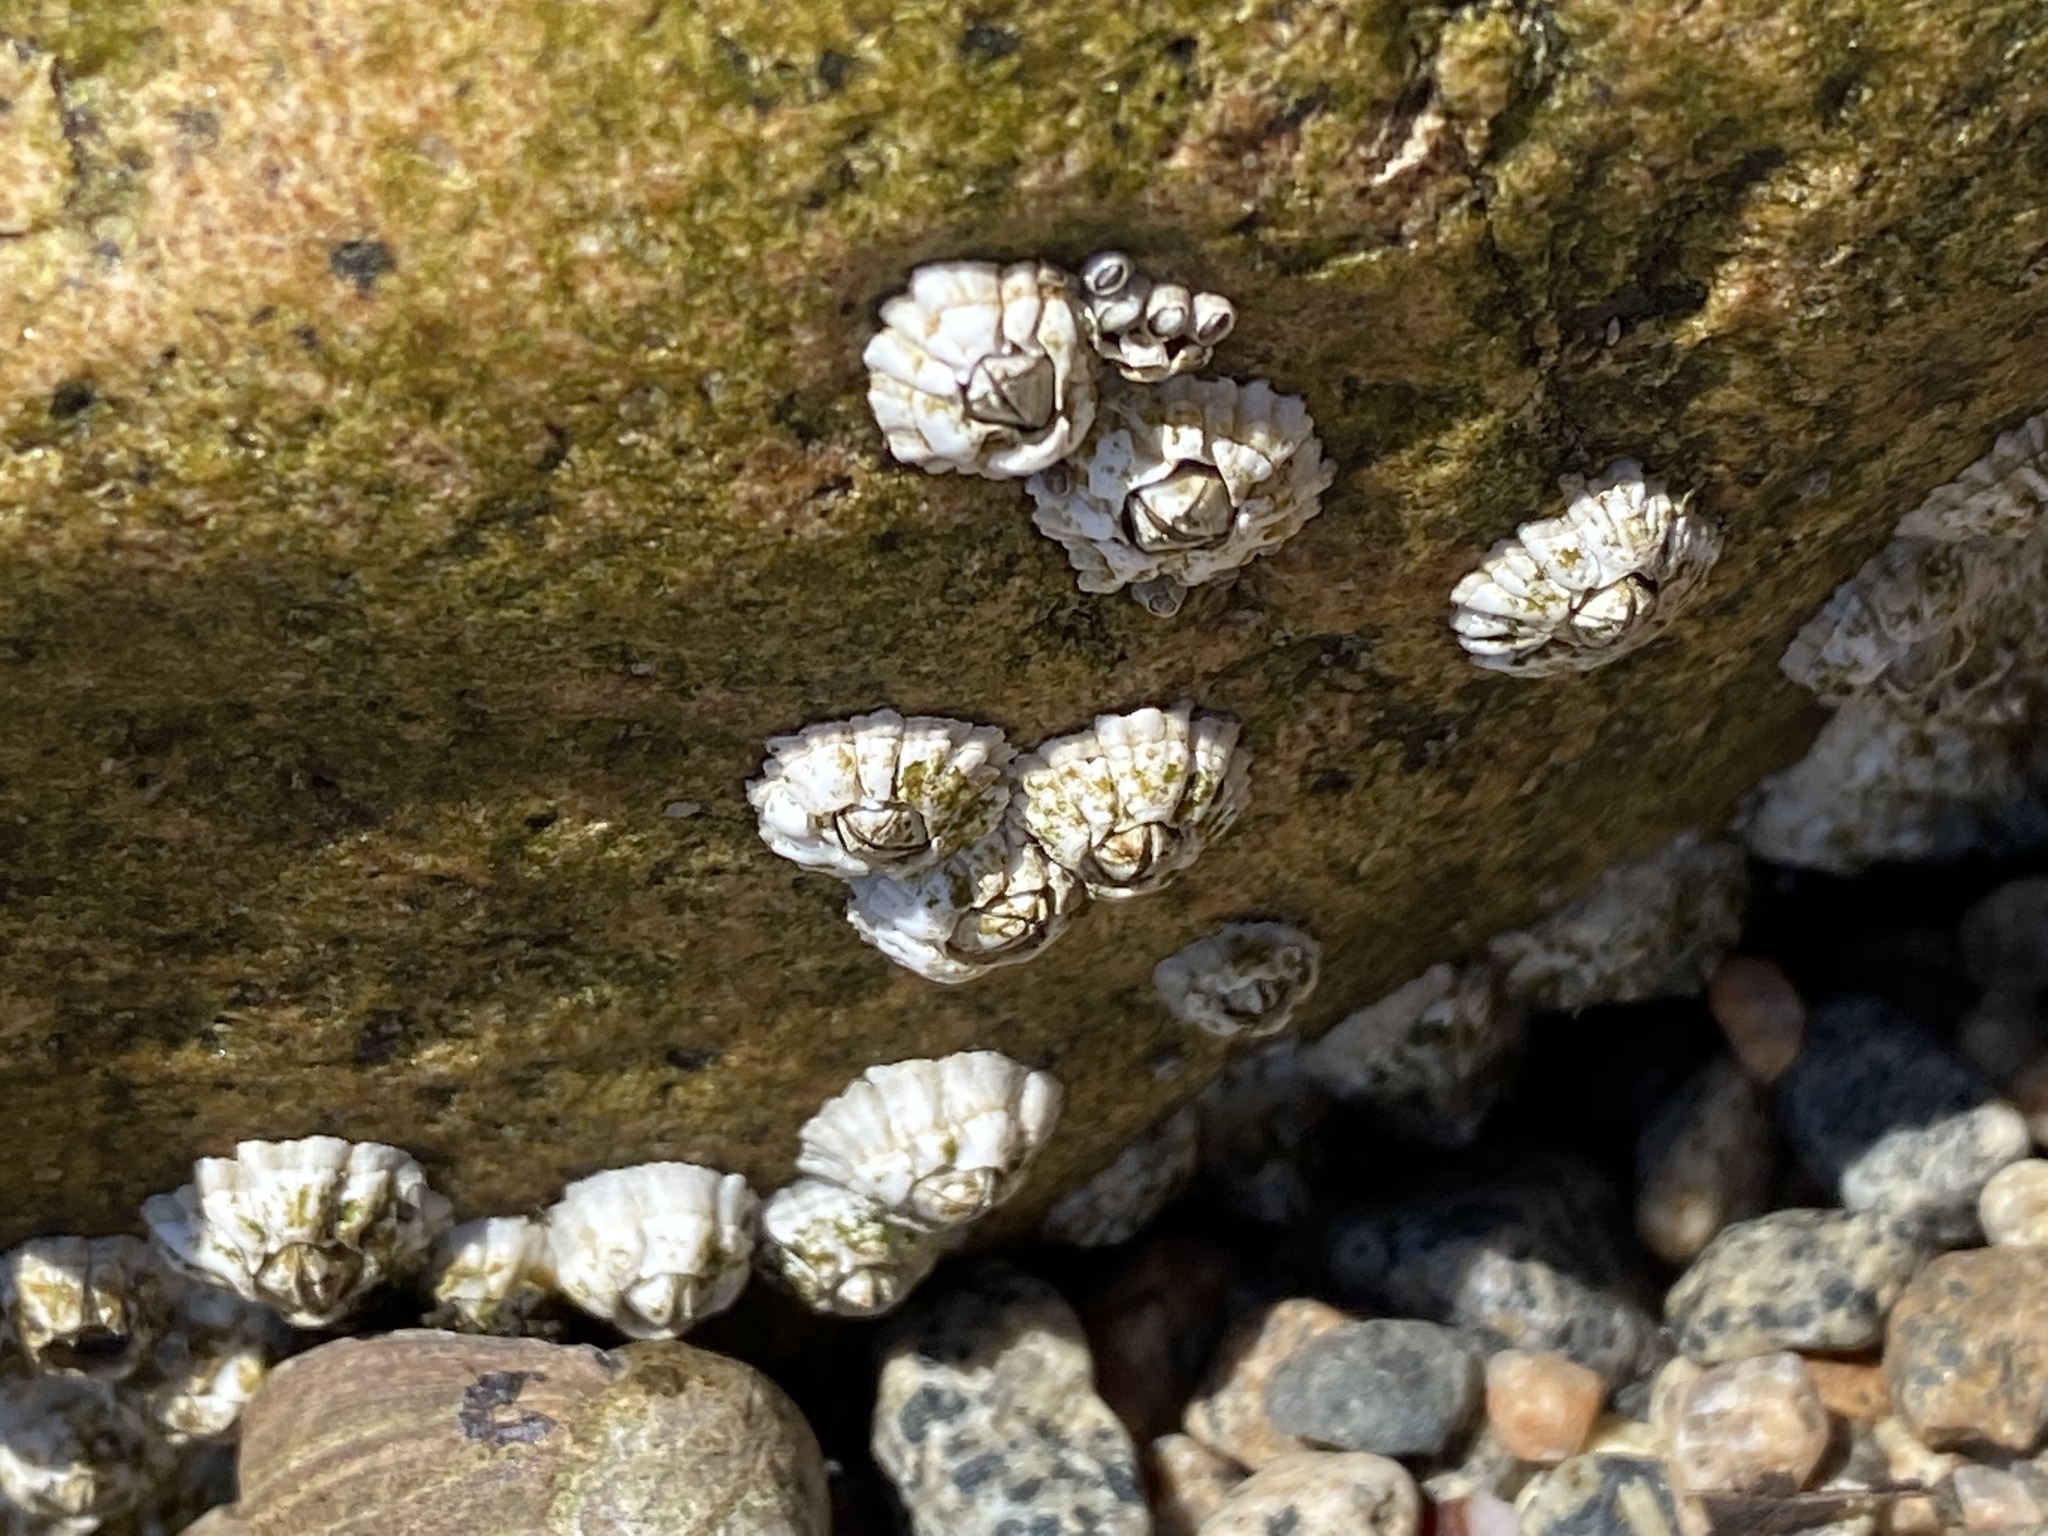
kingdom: Animalia
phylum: Arthropoda
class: Maxillopoda
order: Sessilia
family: Archaeobalanidae
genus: Semibalanus
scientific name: Semibalanus balanoides
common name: Acorn barnacle
